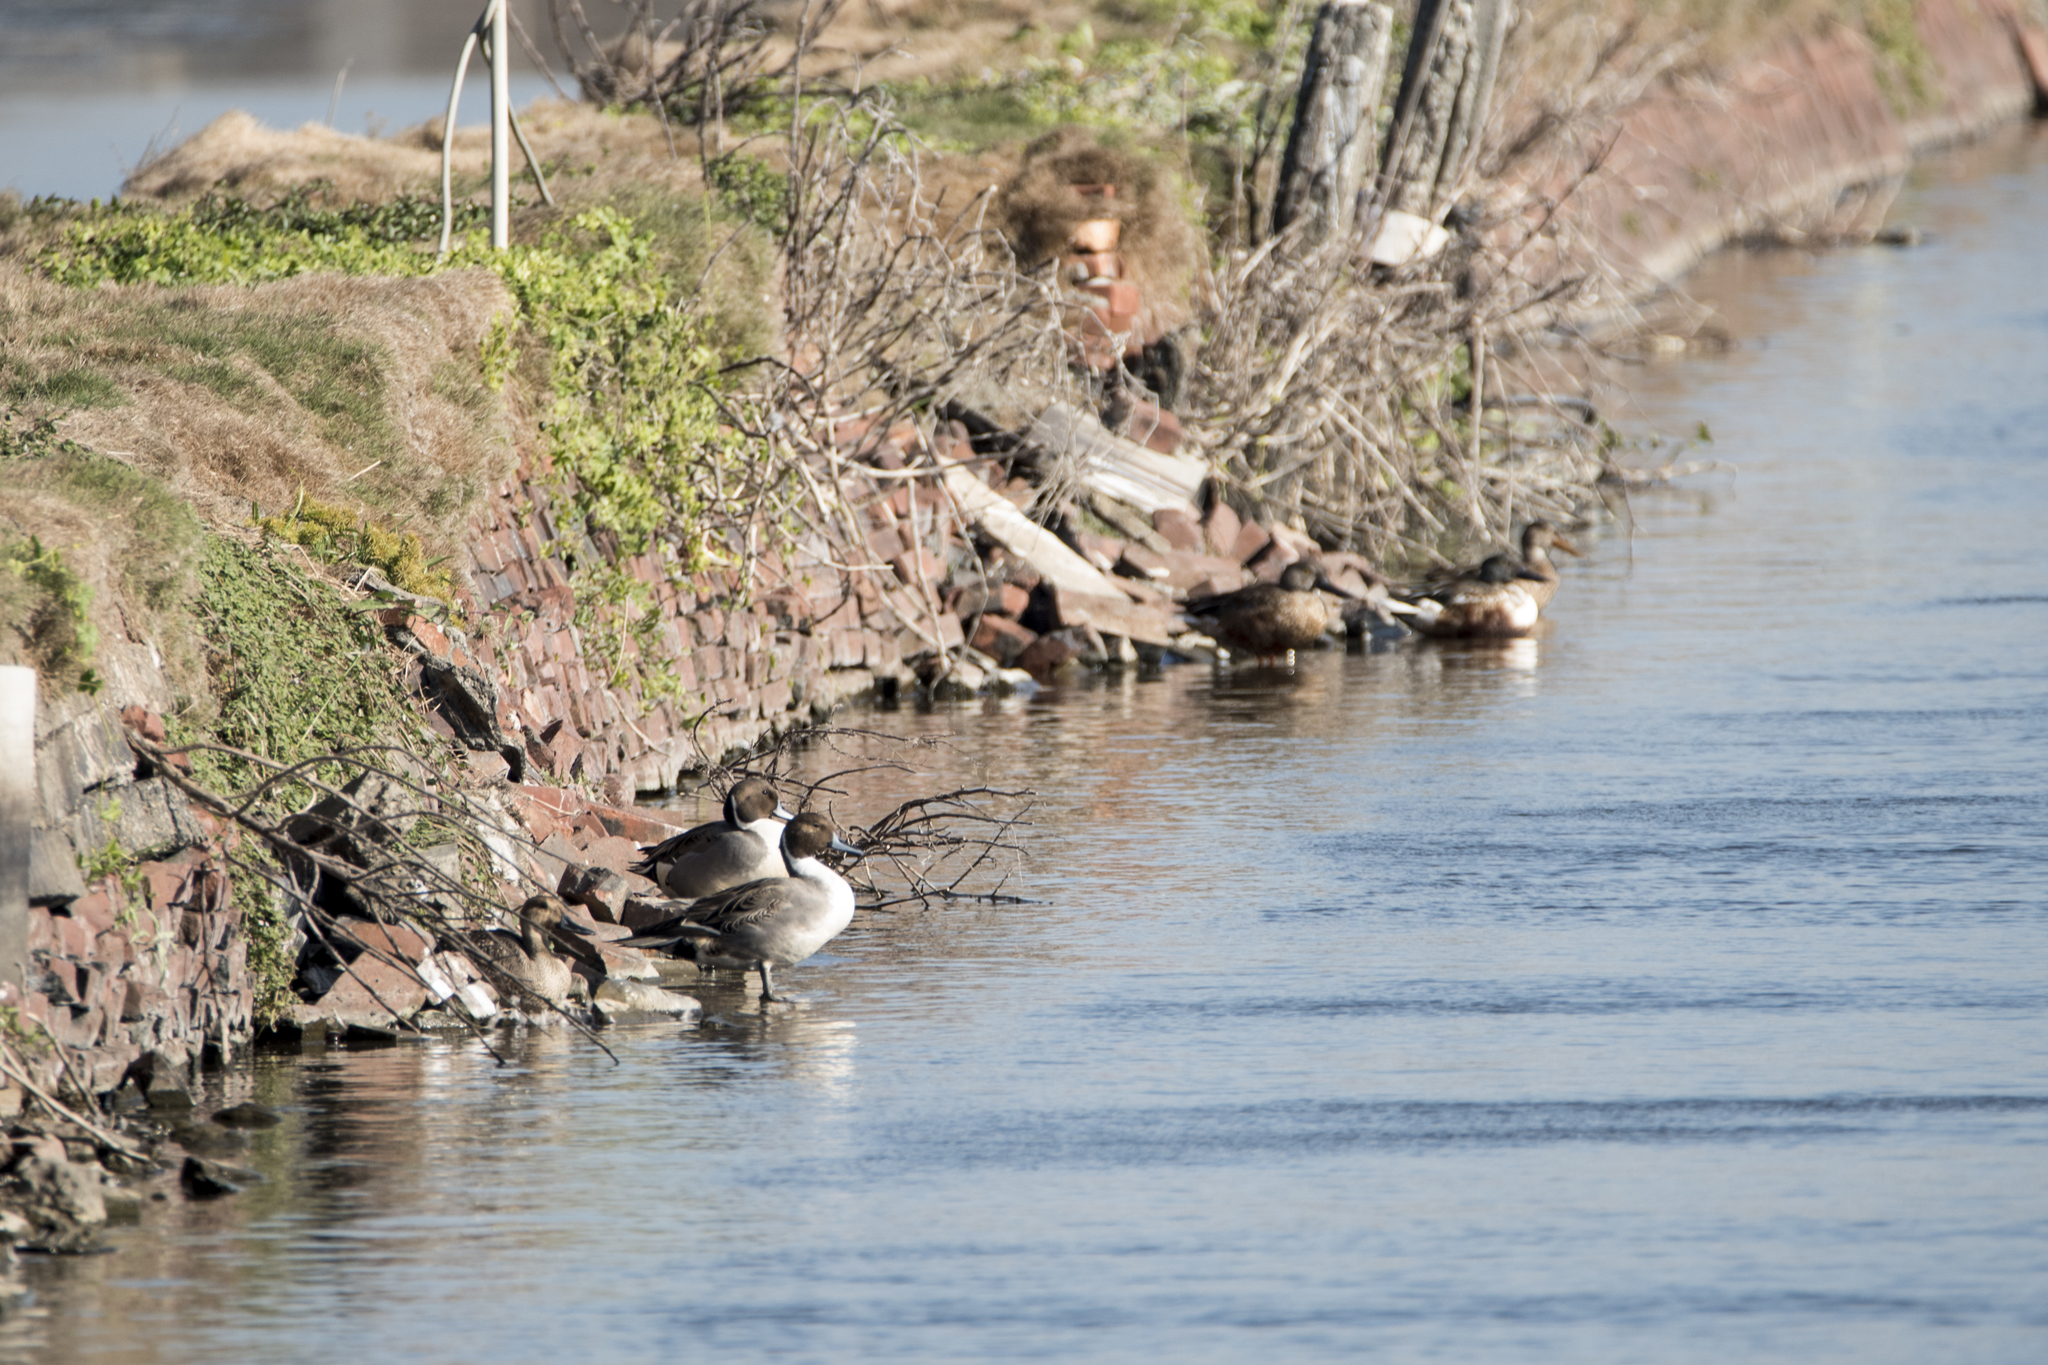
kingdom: Animalia
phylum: Chordata
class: Aves
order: Anseriformes
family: Anatidae
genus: Anas
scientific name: Anas acuta
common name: Northern pintail
